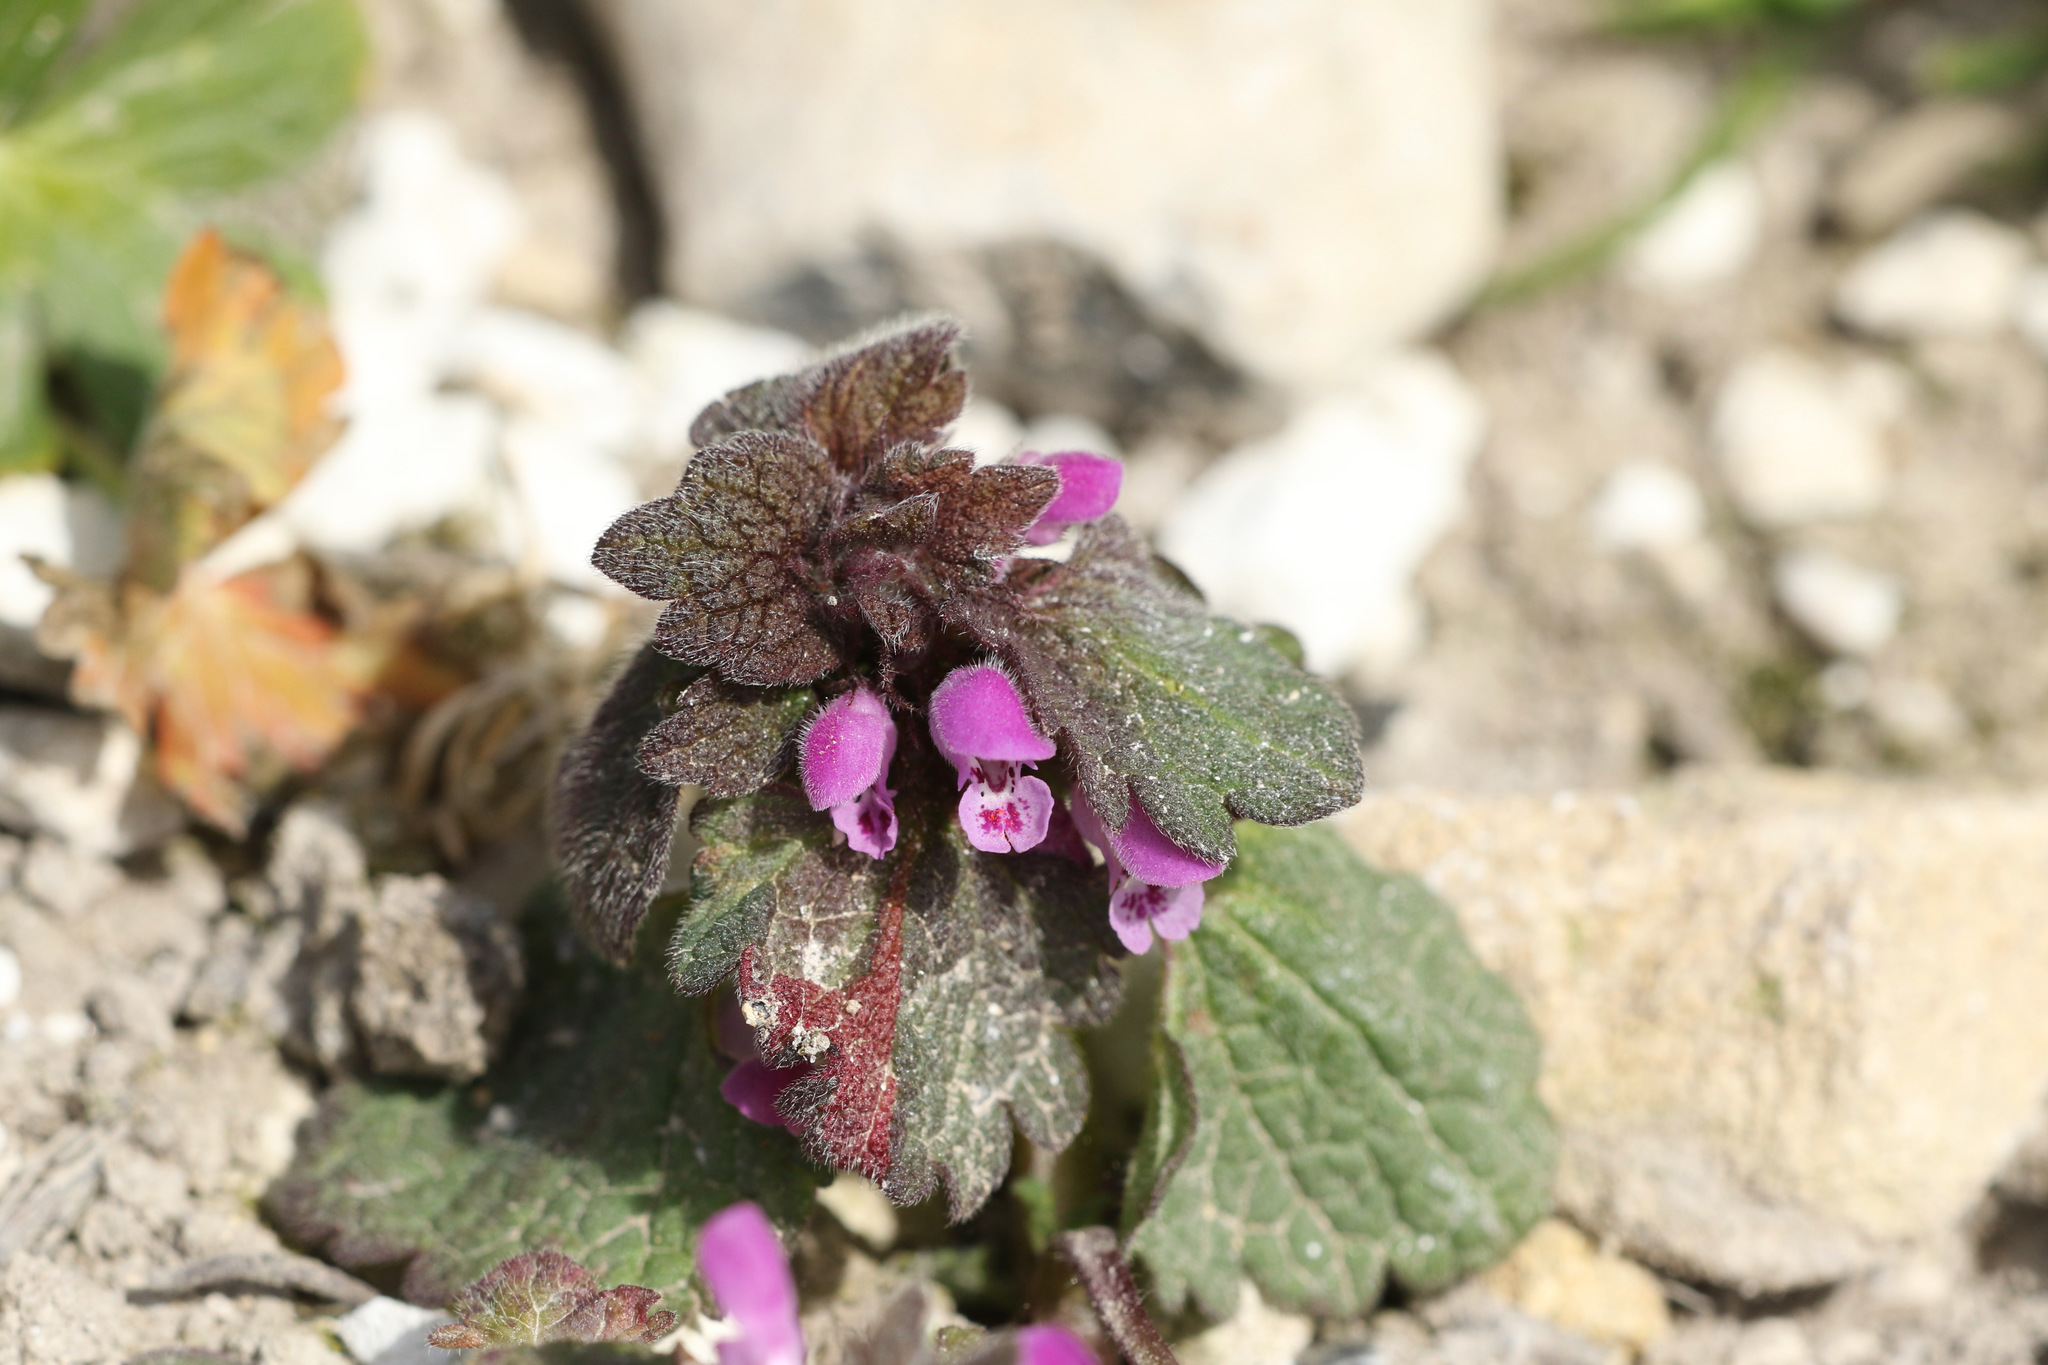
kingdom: Plantae
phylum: Tracheophyta
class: Magnoliopsida
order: Lamiales
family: Lamiaceae
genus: Lamium
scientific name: Lamium purpureum
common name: Red dead-nettle
